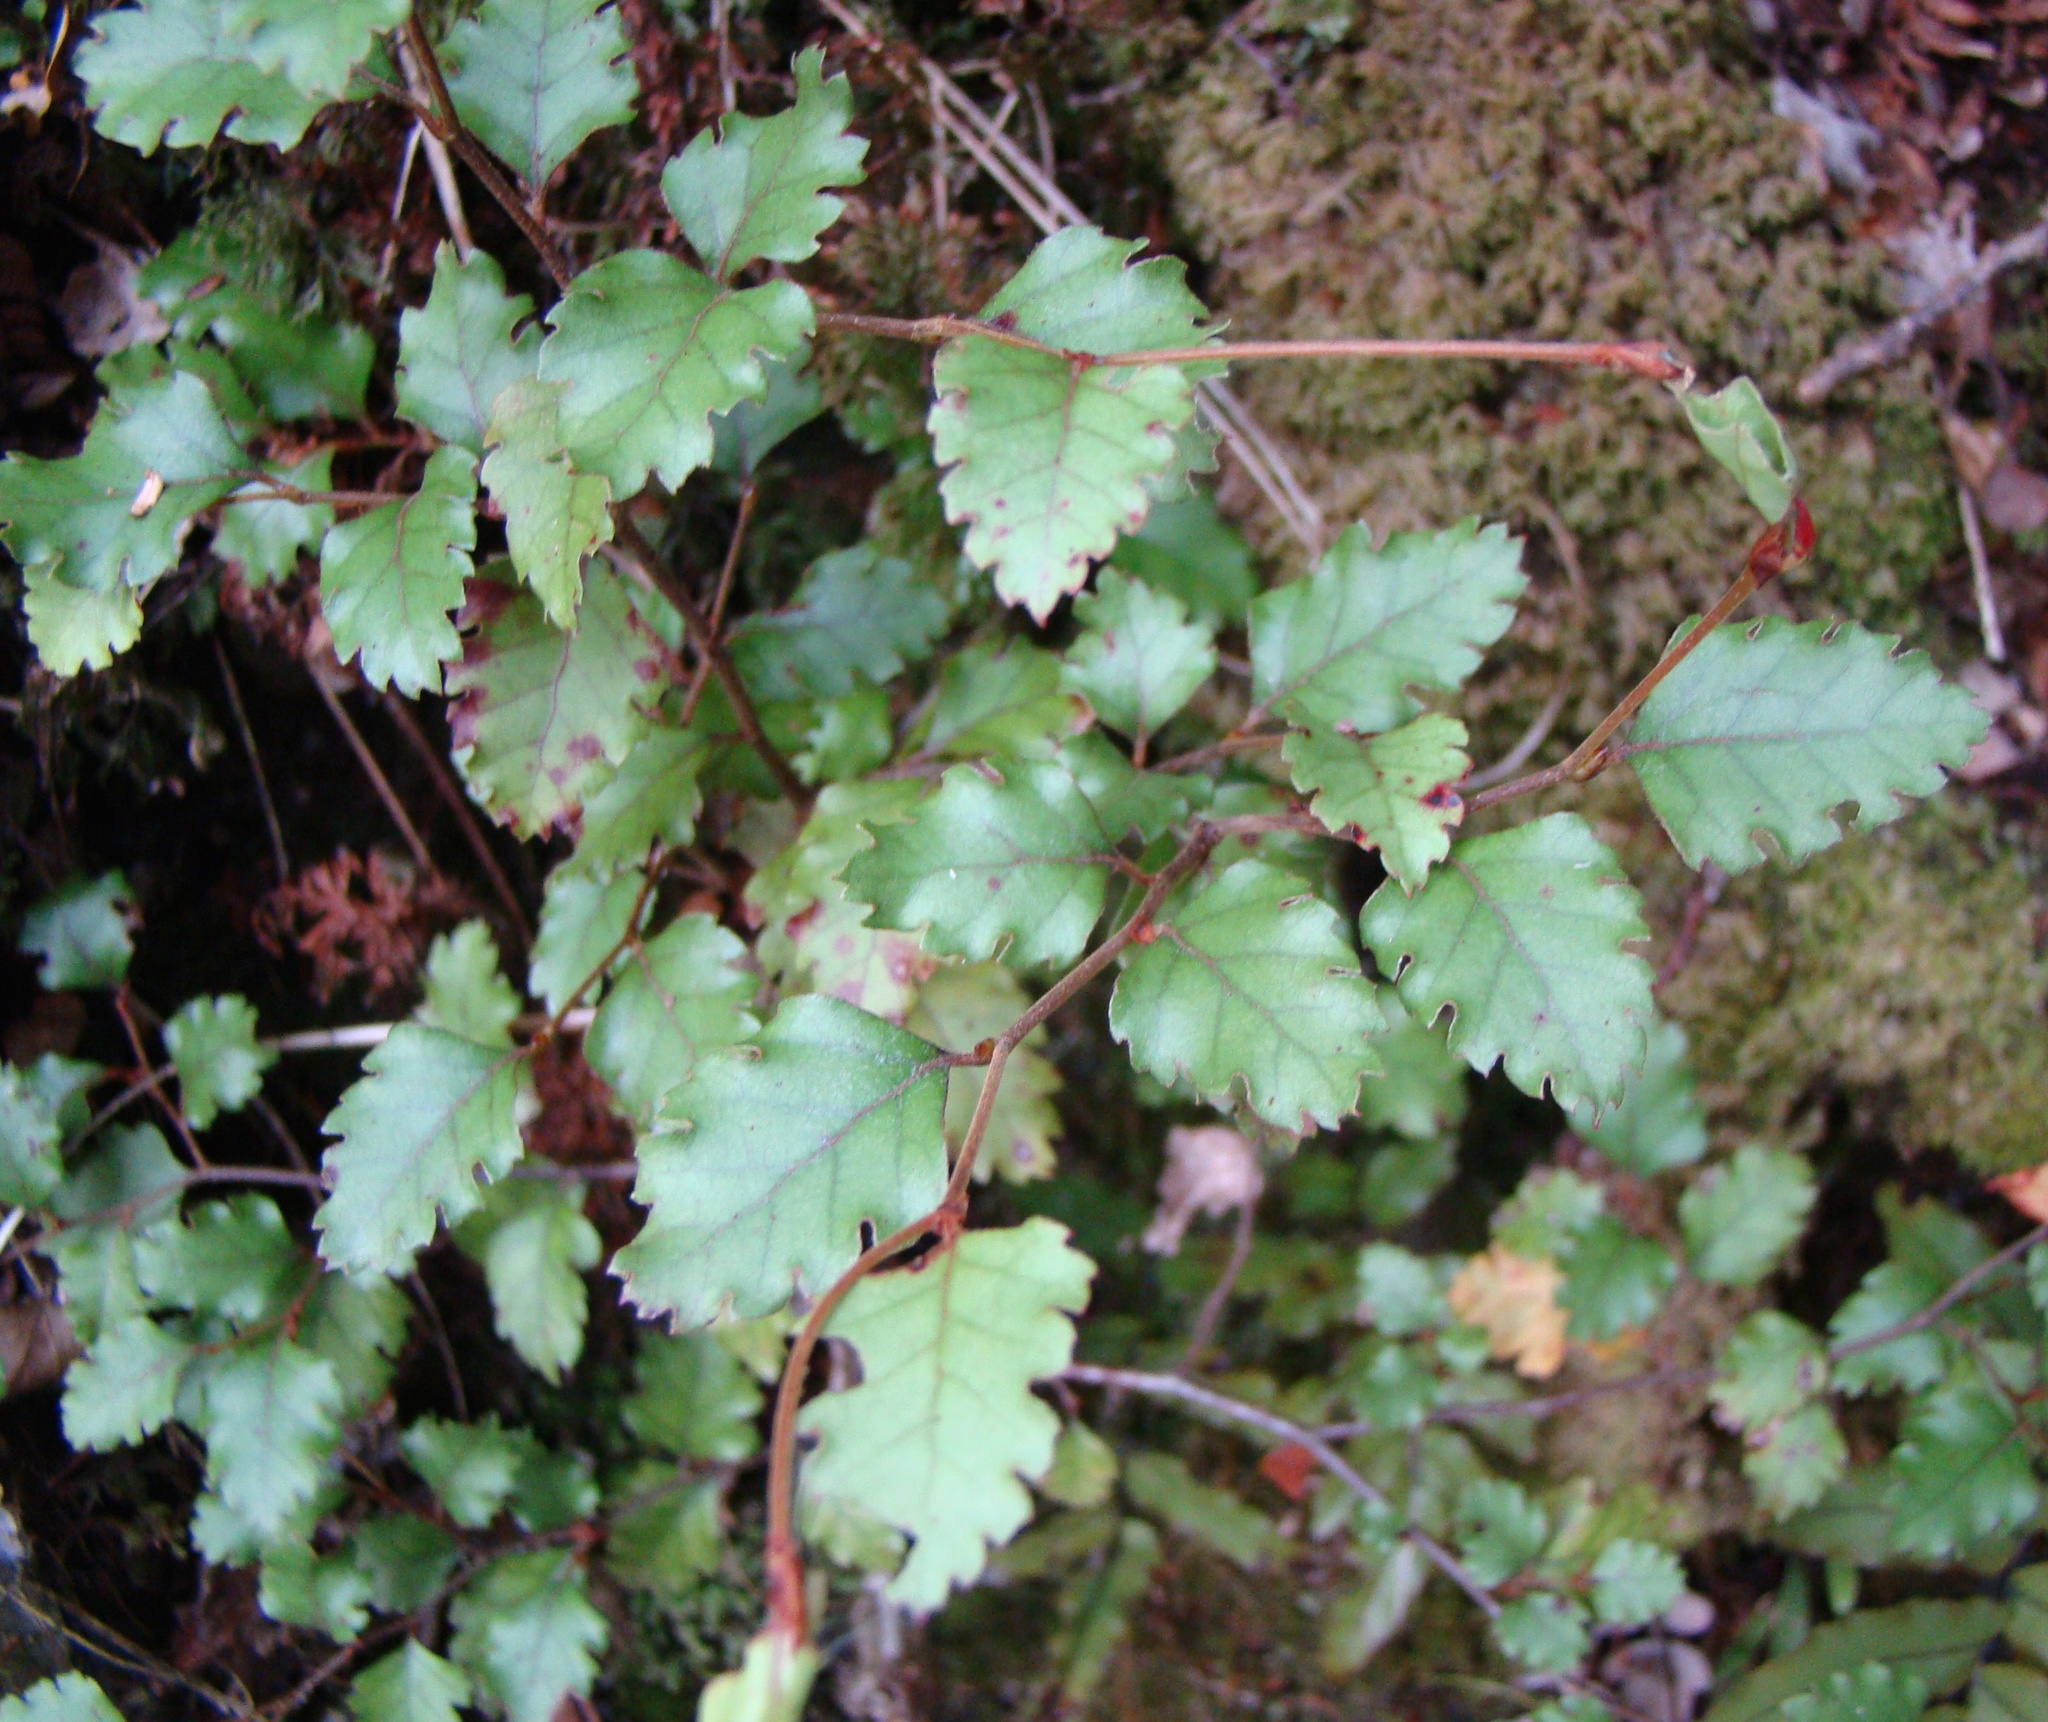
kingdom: Plantae
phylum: Tracheophyta
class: Magnoliopsida
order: Fagales
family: Nothofagaceae
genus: Nothofagus
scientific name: Nothofagus fusca
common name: Red beech
